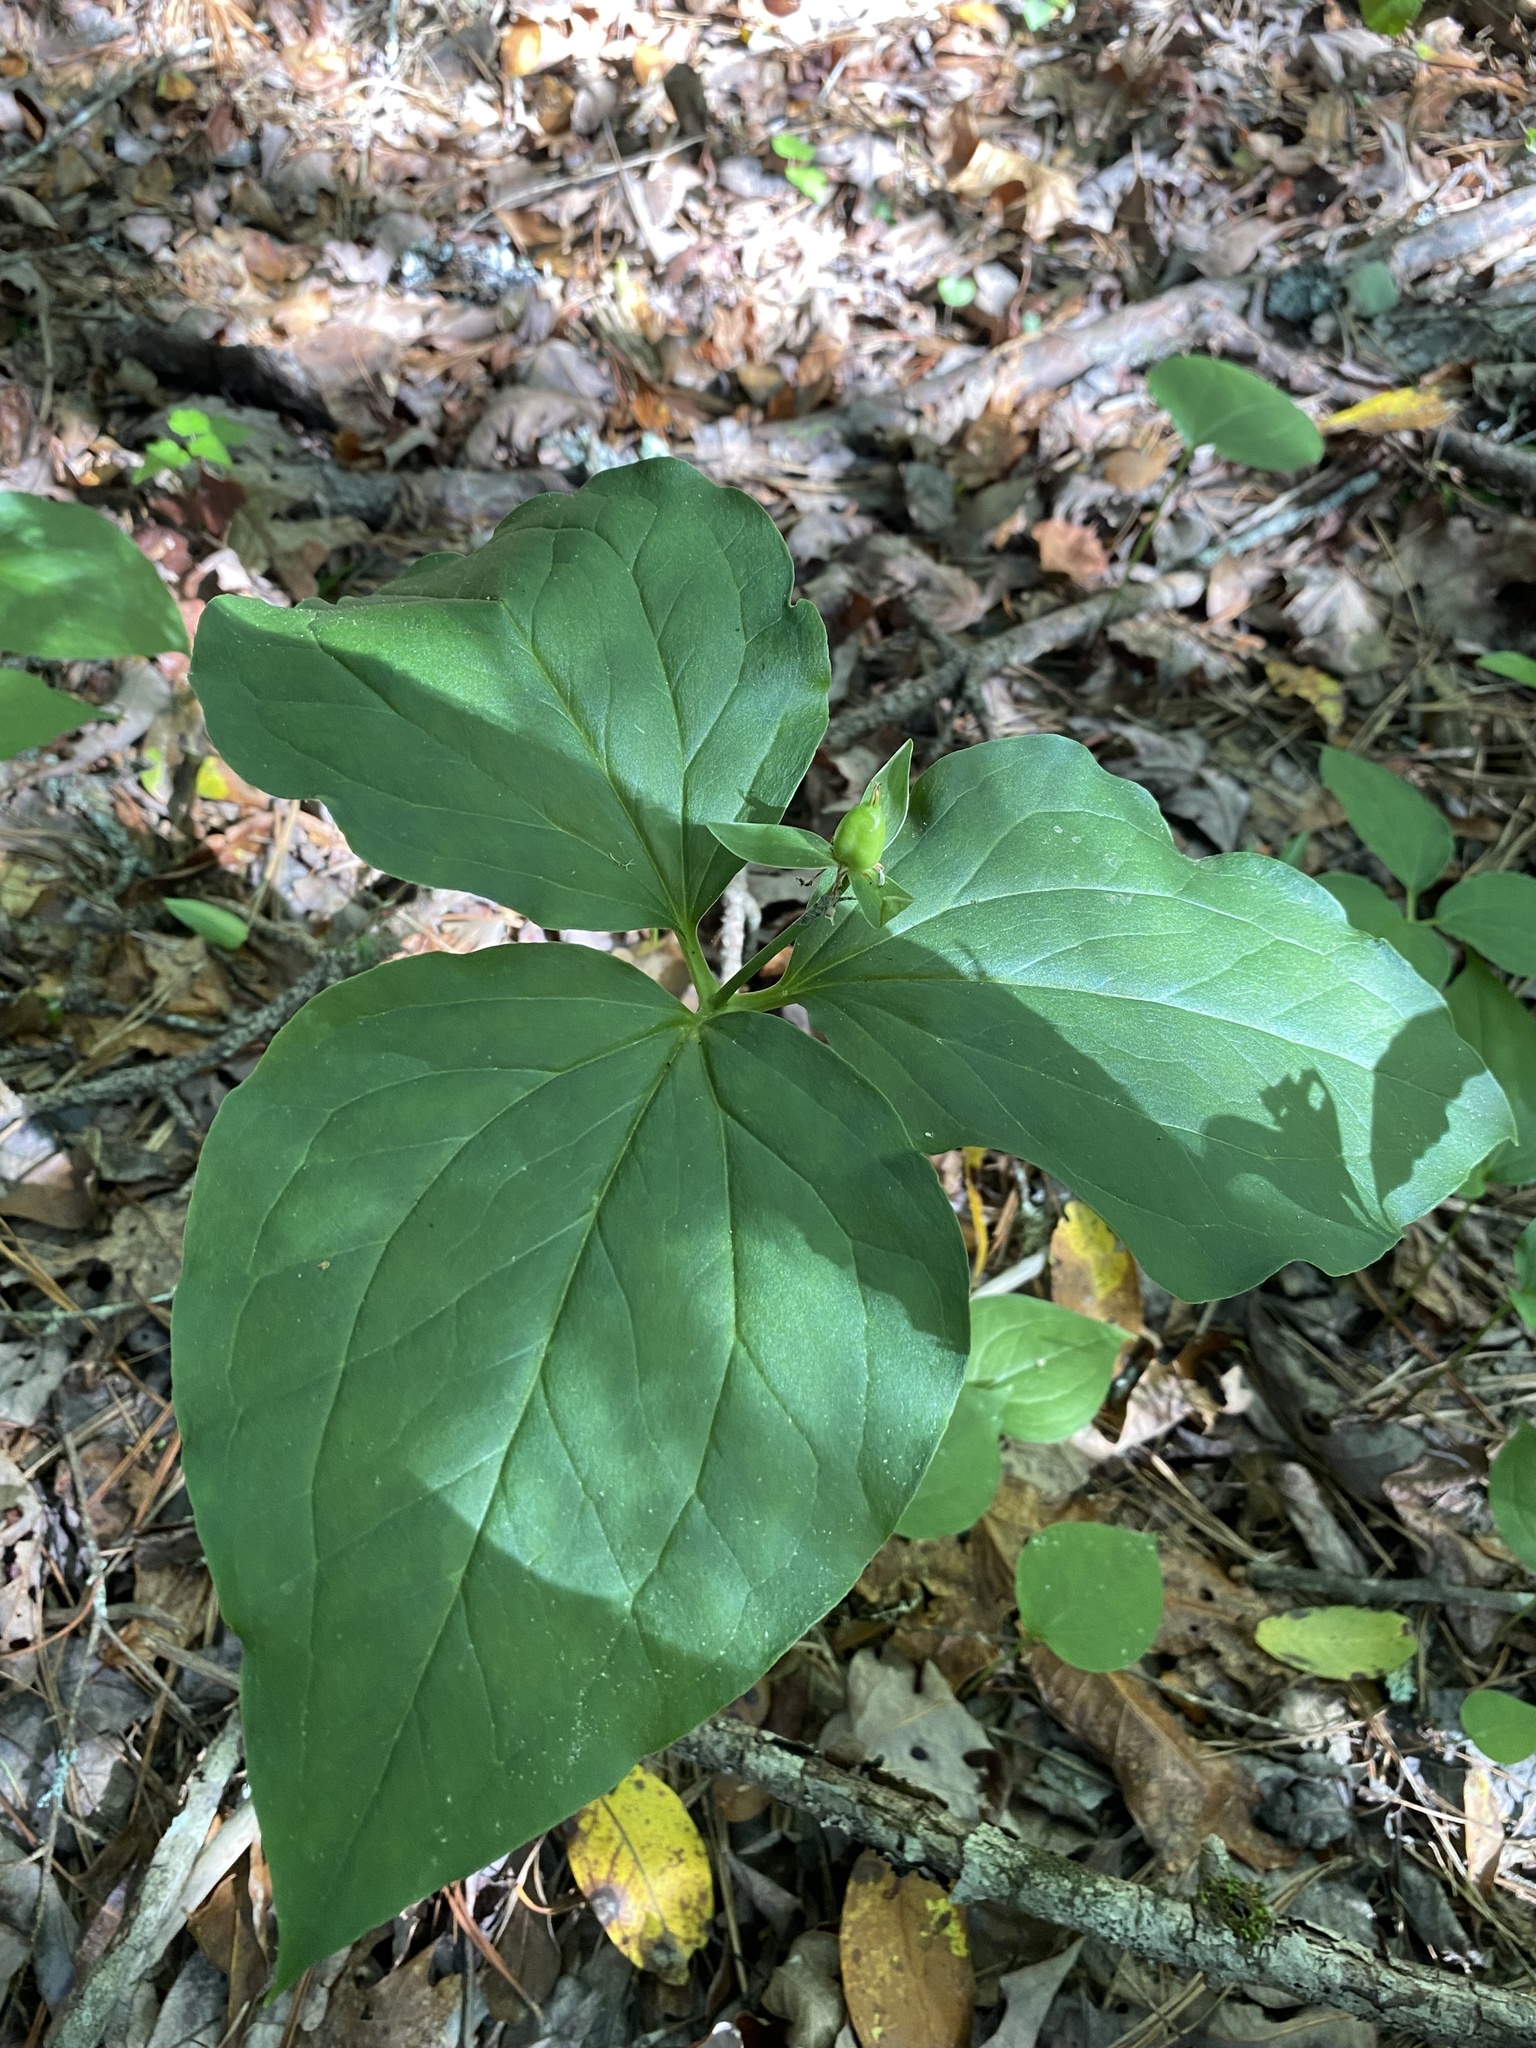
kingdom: Plantae
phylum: Tracheophyta
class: Liliopsida
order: Liliales
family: Melanthiaceae
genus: Trillium
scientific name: Trillium undulatum
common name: Paint trillium
